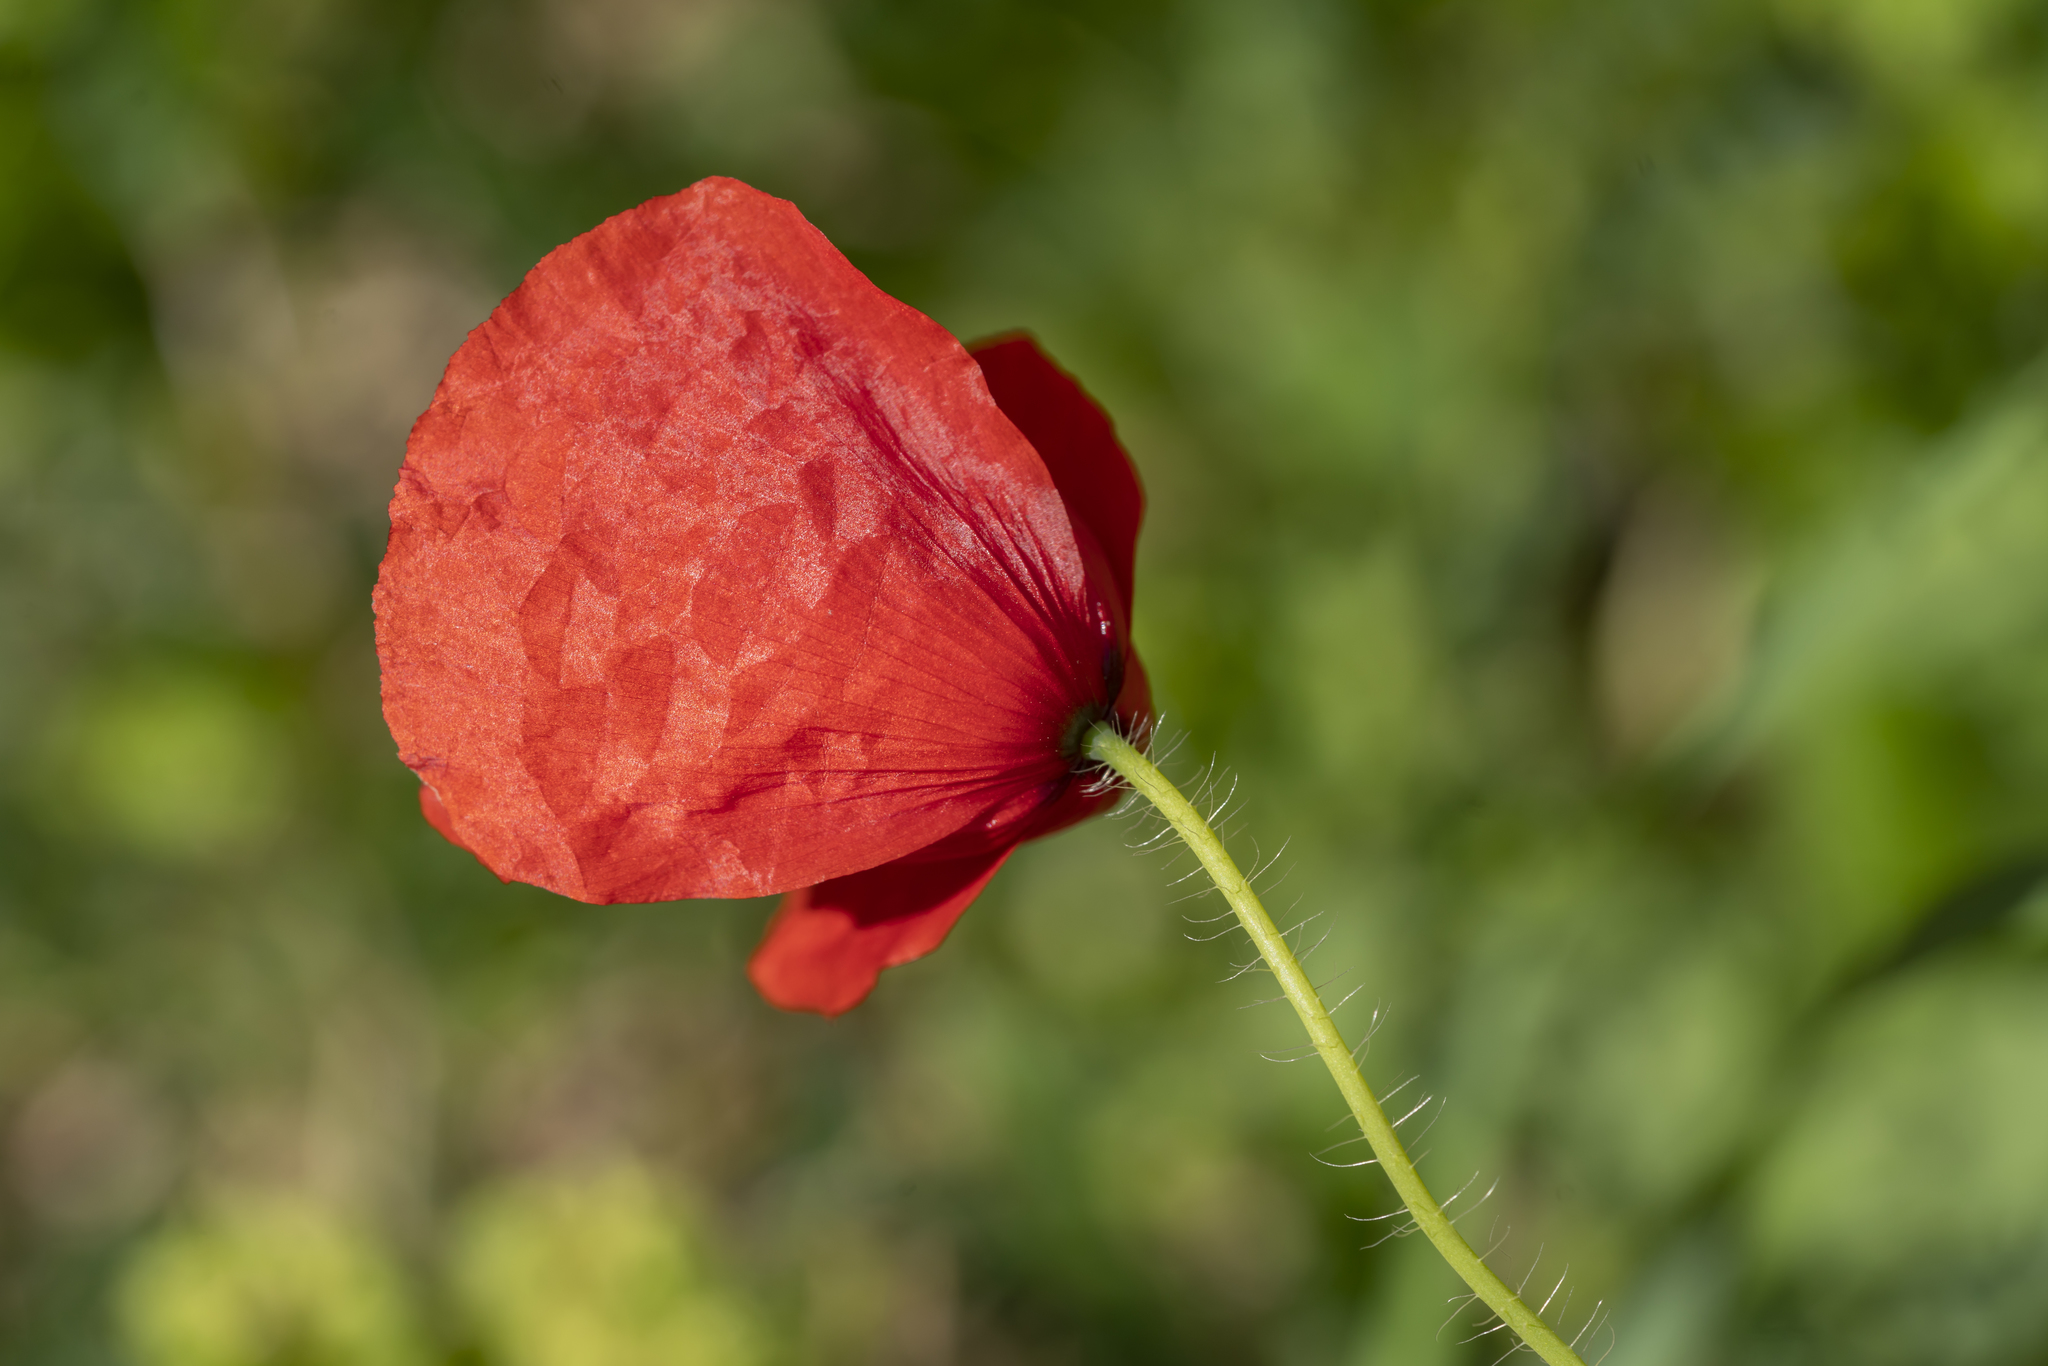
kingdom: Plantae
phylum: Tracheophyta
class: Magnoliopsida
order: Ranunculales
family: Papaveraceae
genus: Papaver
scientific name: Papaver rhoeas
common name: Corn poppy
